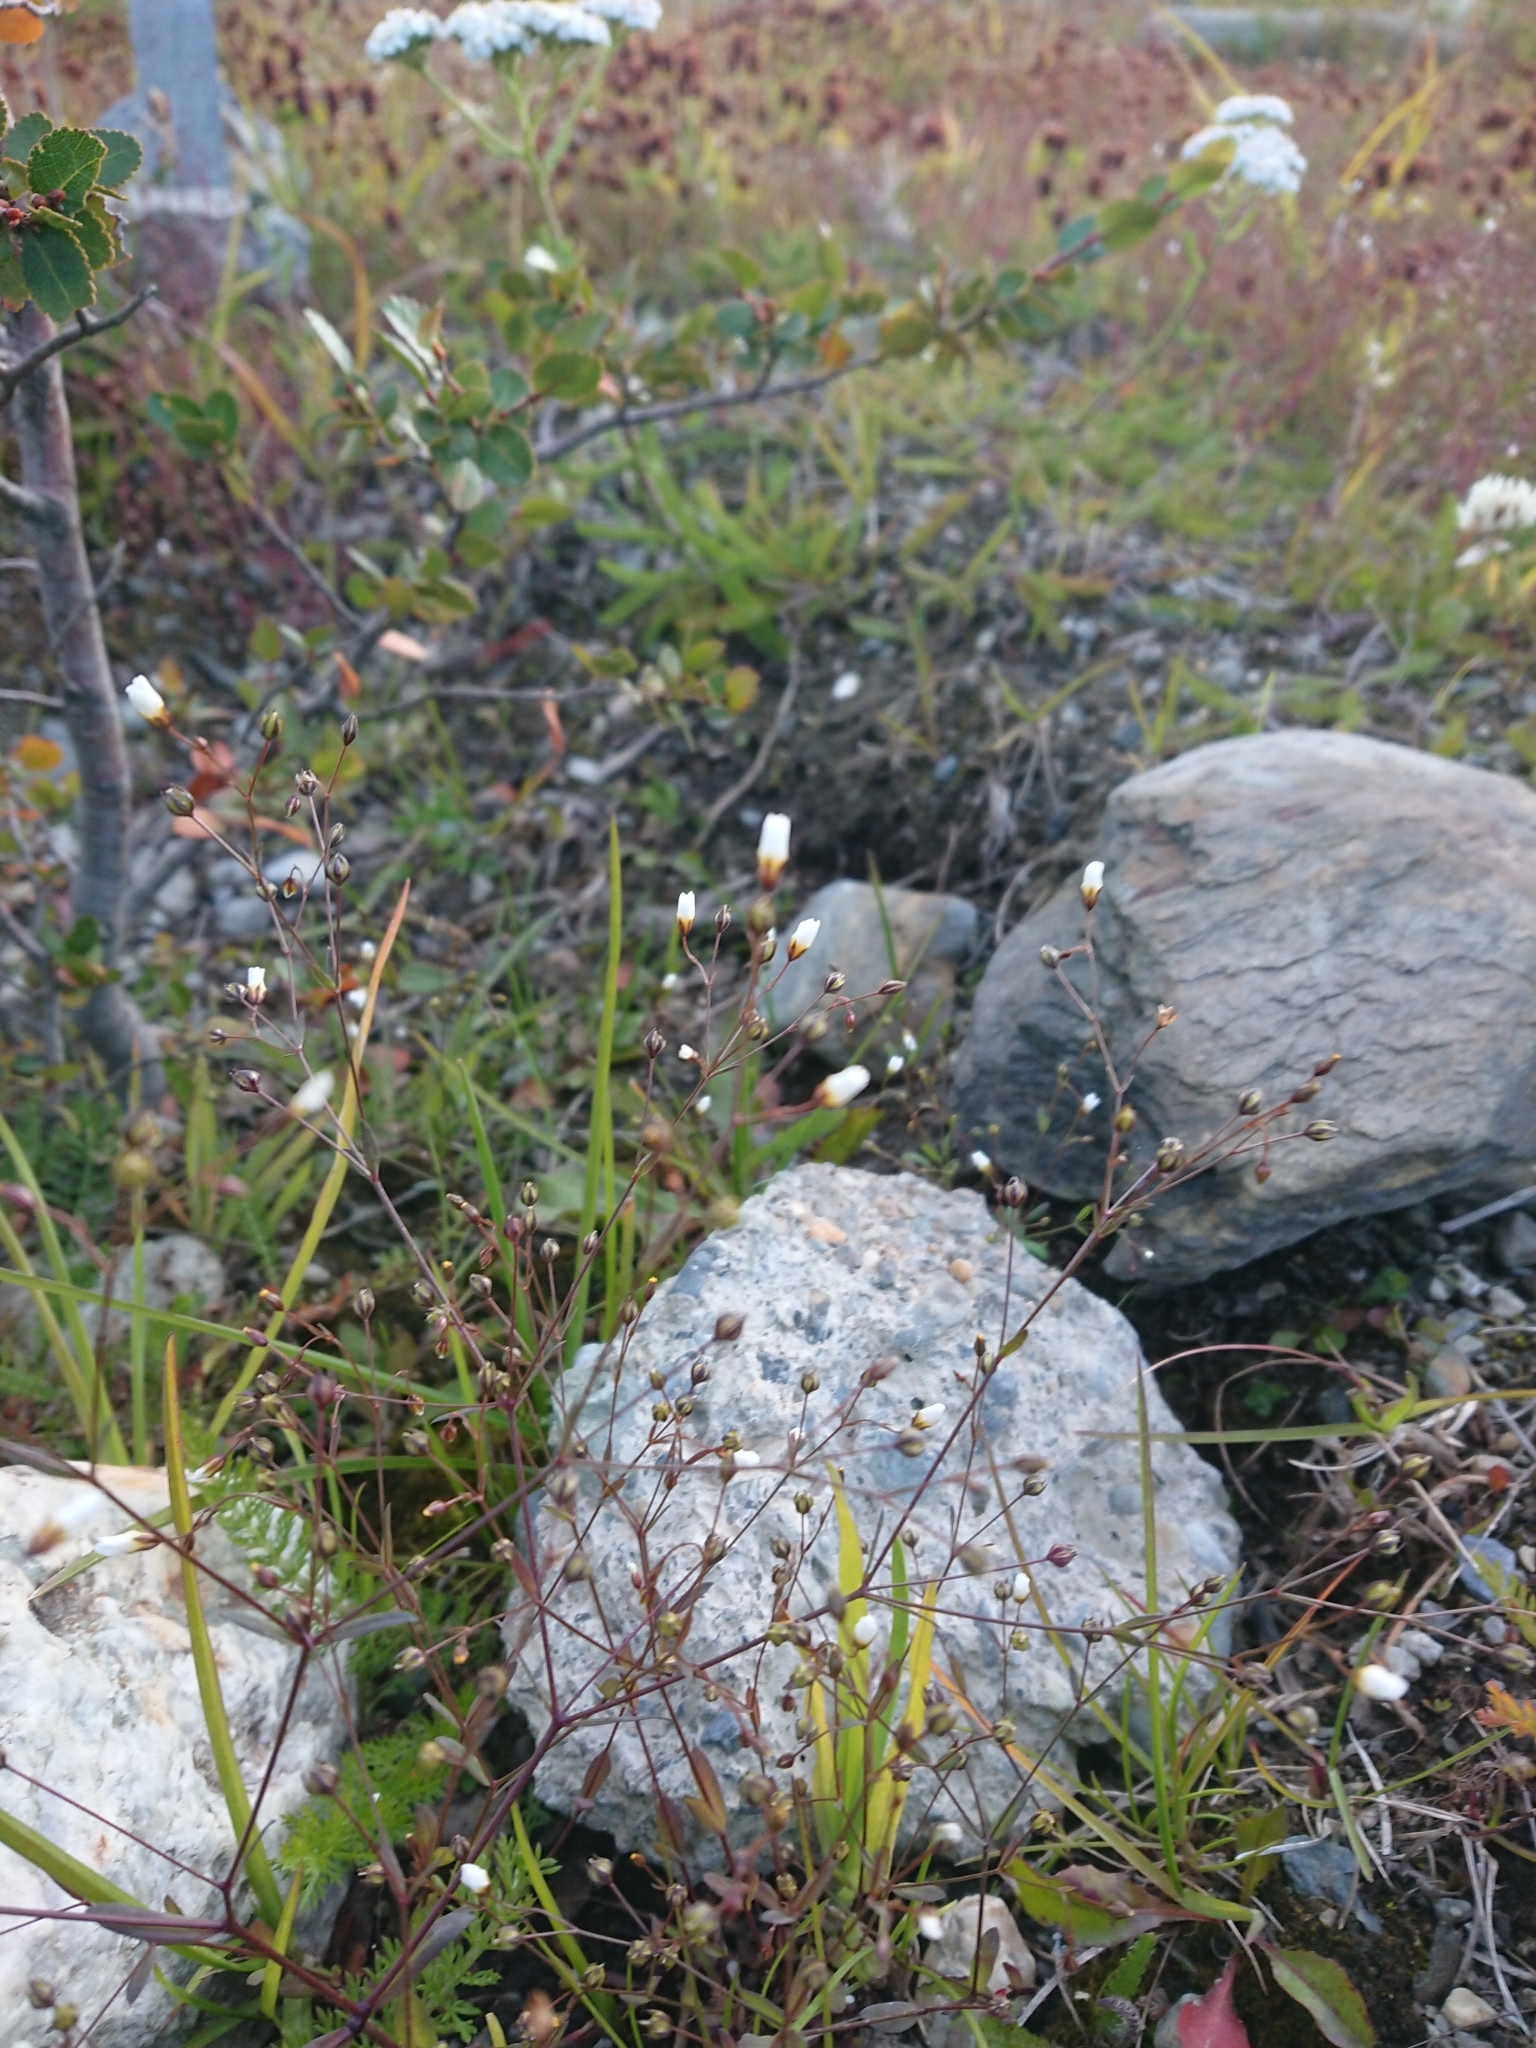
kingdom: Plantae
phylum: Tracheophyta
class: Magnoliopsida
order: Malpighiales
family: Linaceae
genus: Linum
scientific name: Linum catharticum
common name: Fairy flax
